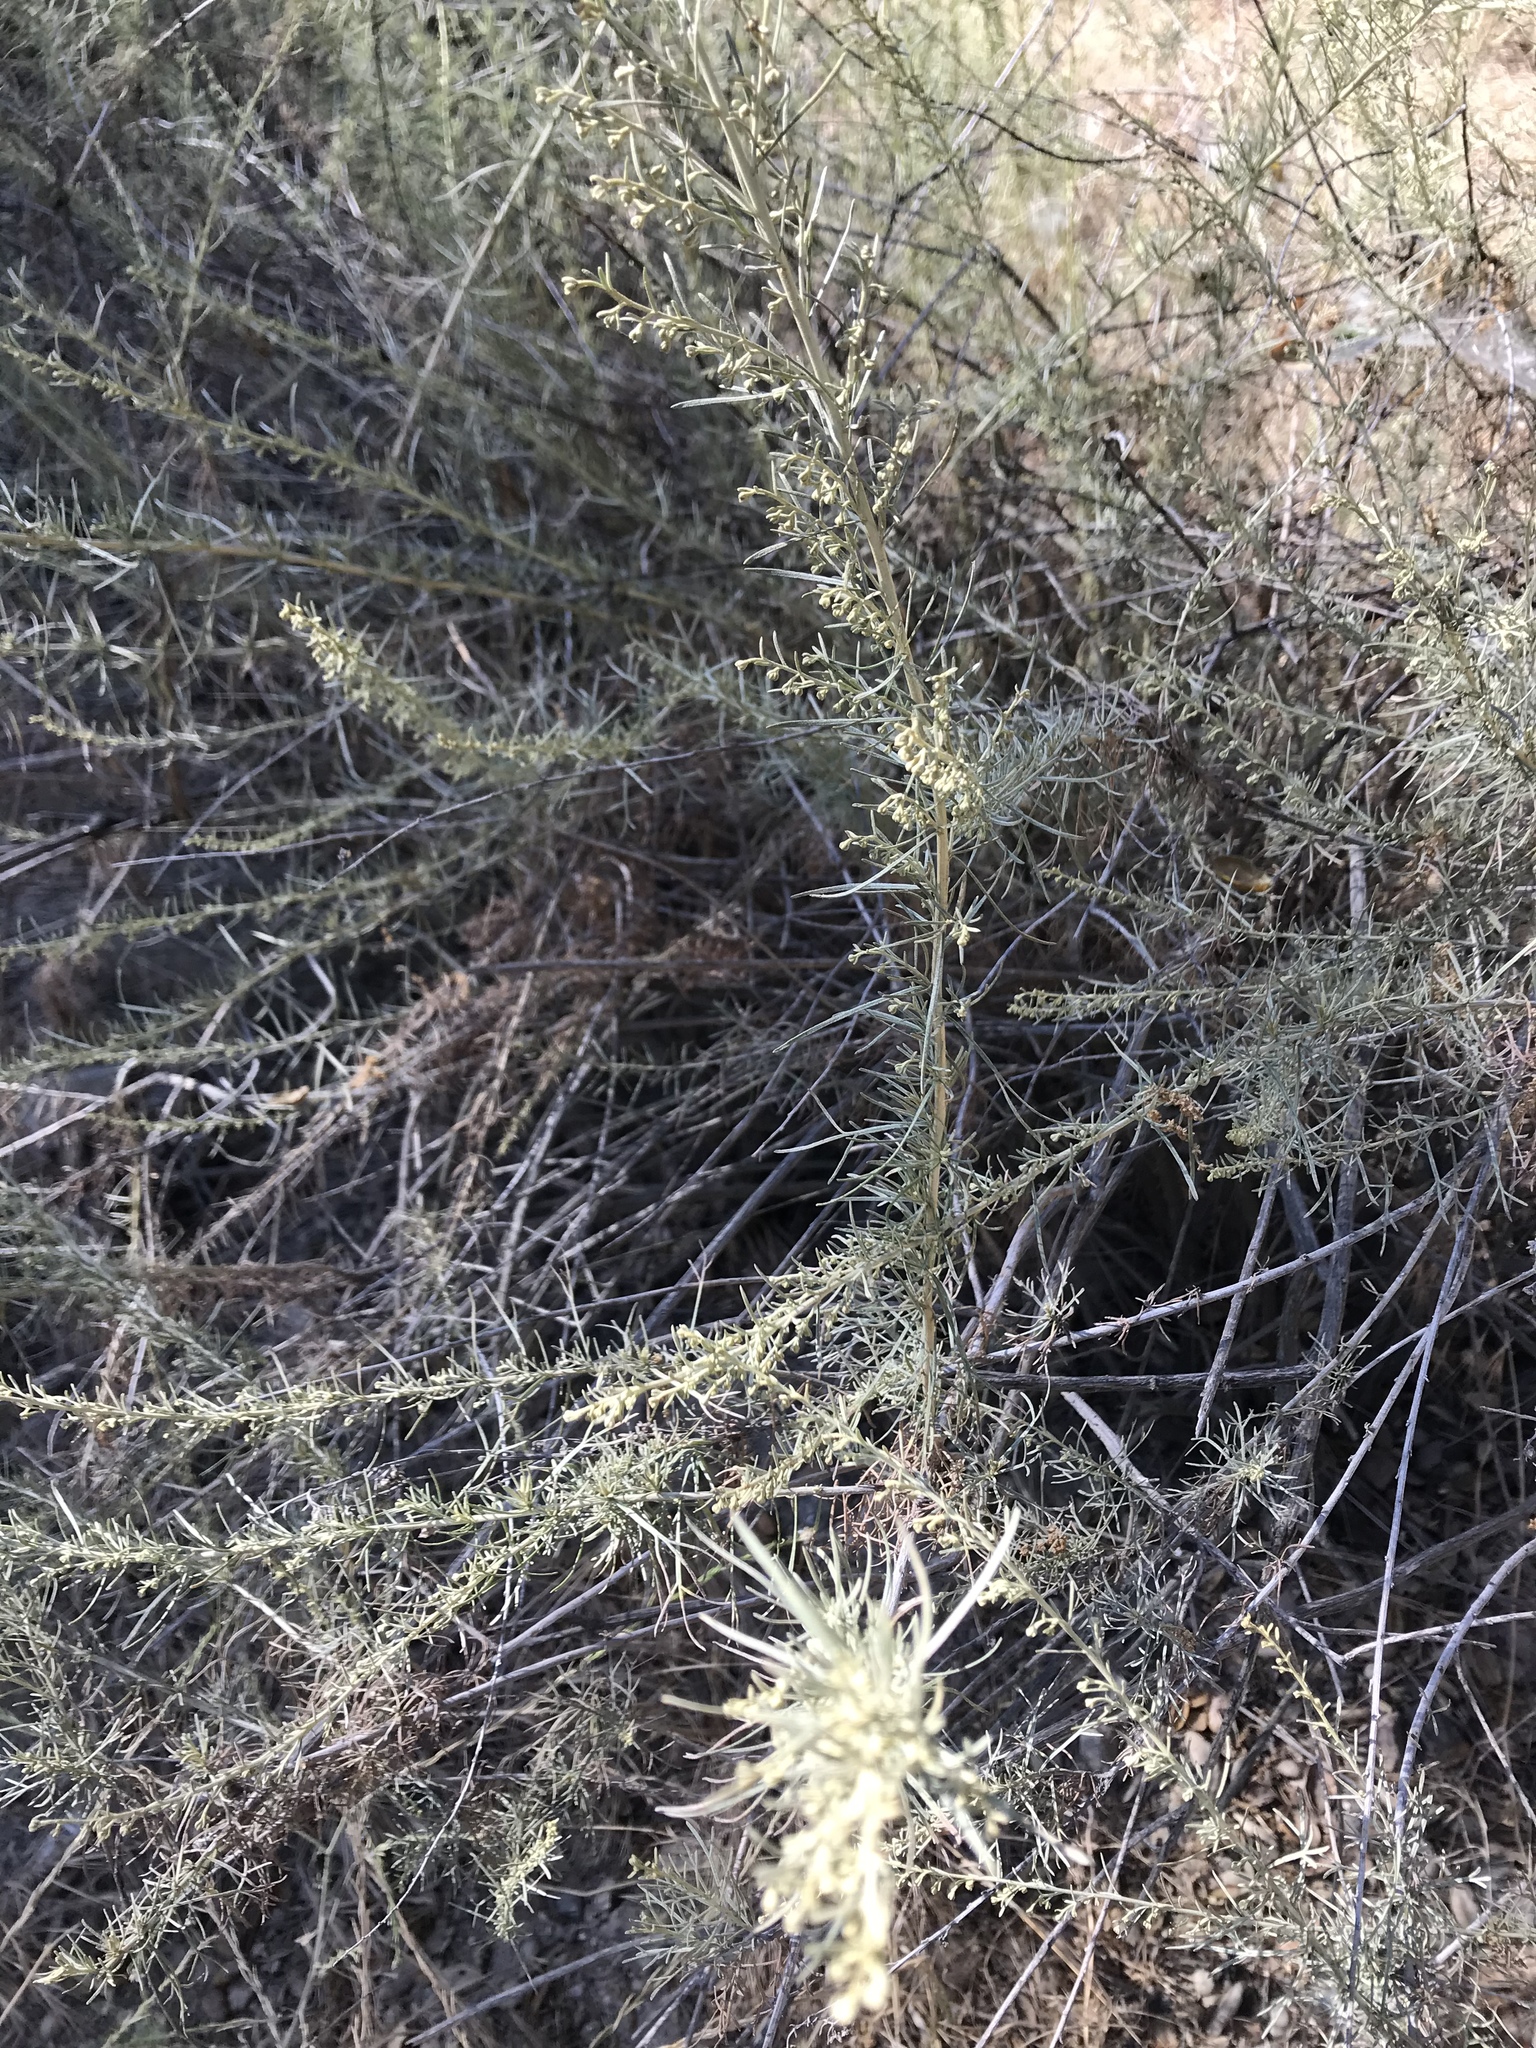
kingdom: Plantae
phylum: Tracheophyta
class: Magnoliopsida
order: Asterales
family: Asteraceae
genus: Artemisia
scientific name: Artemisia californica
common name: California sagebrush
